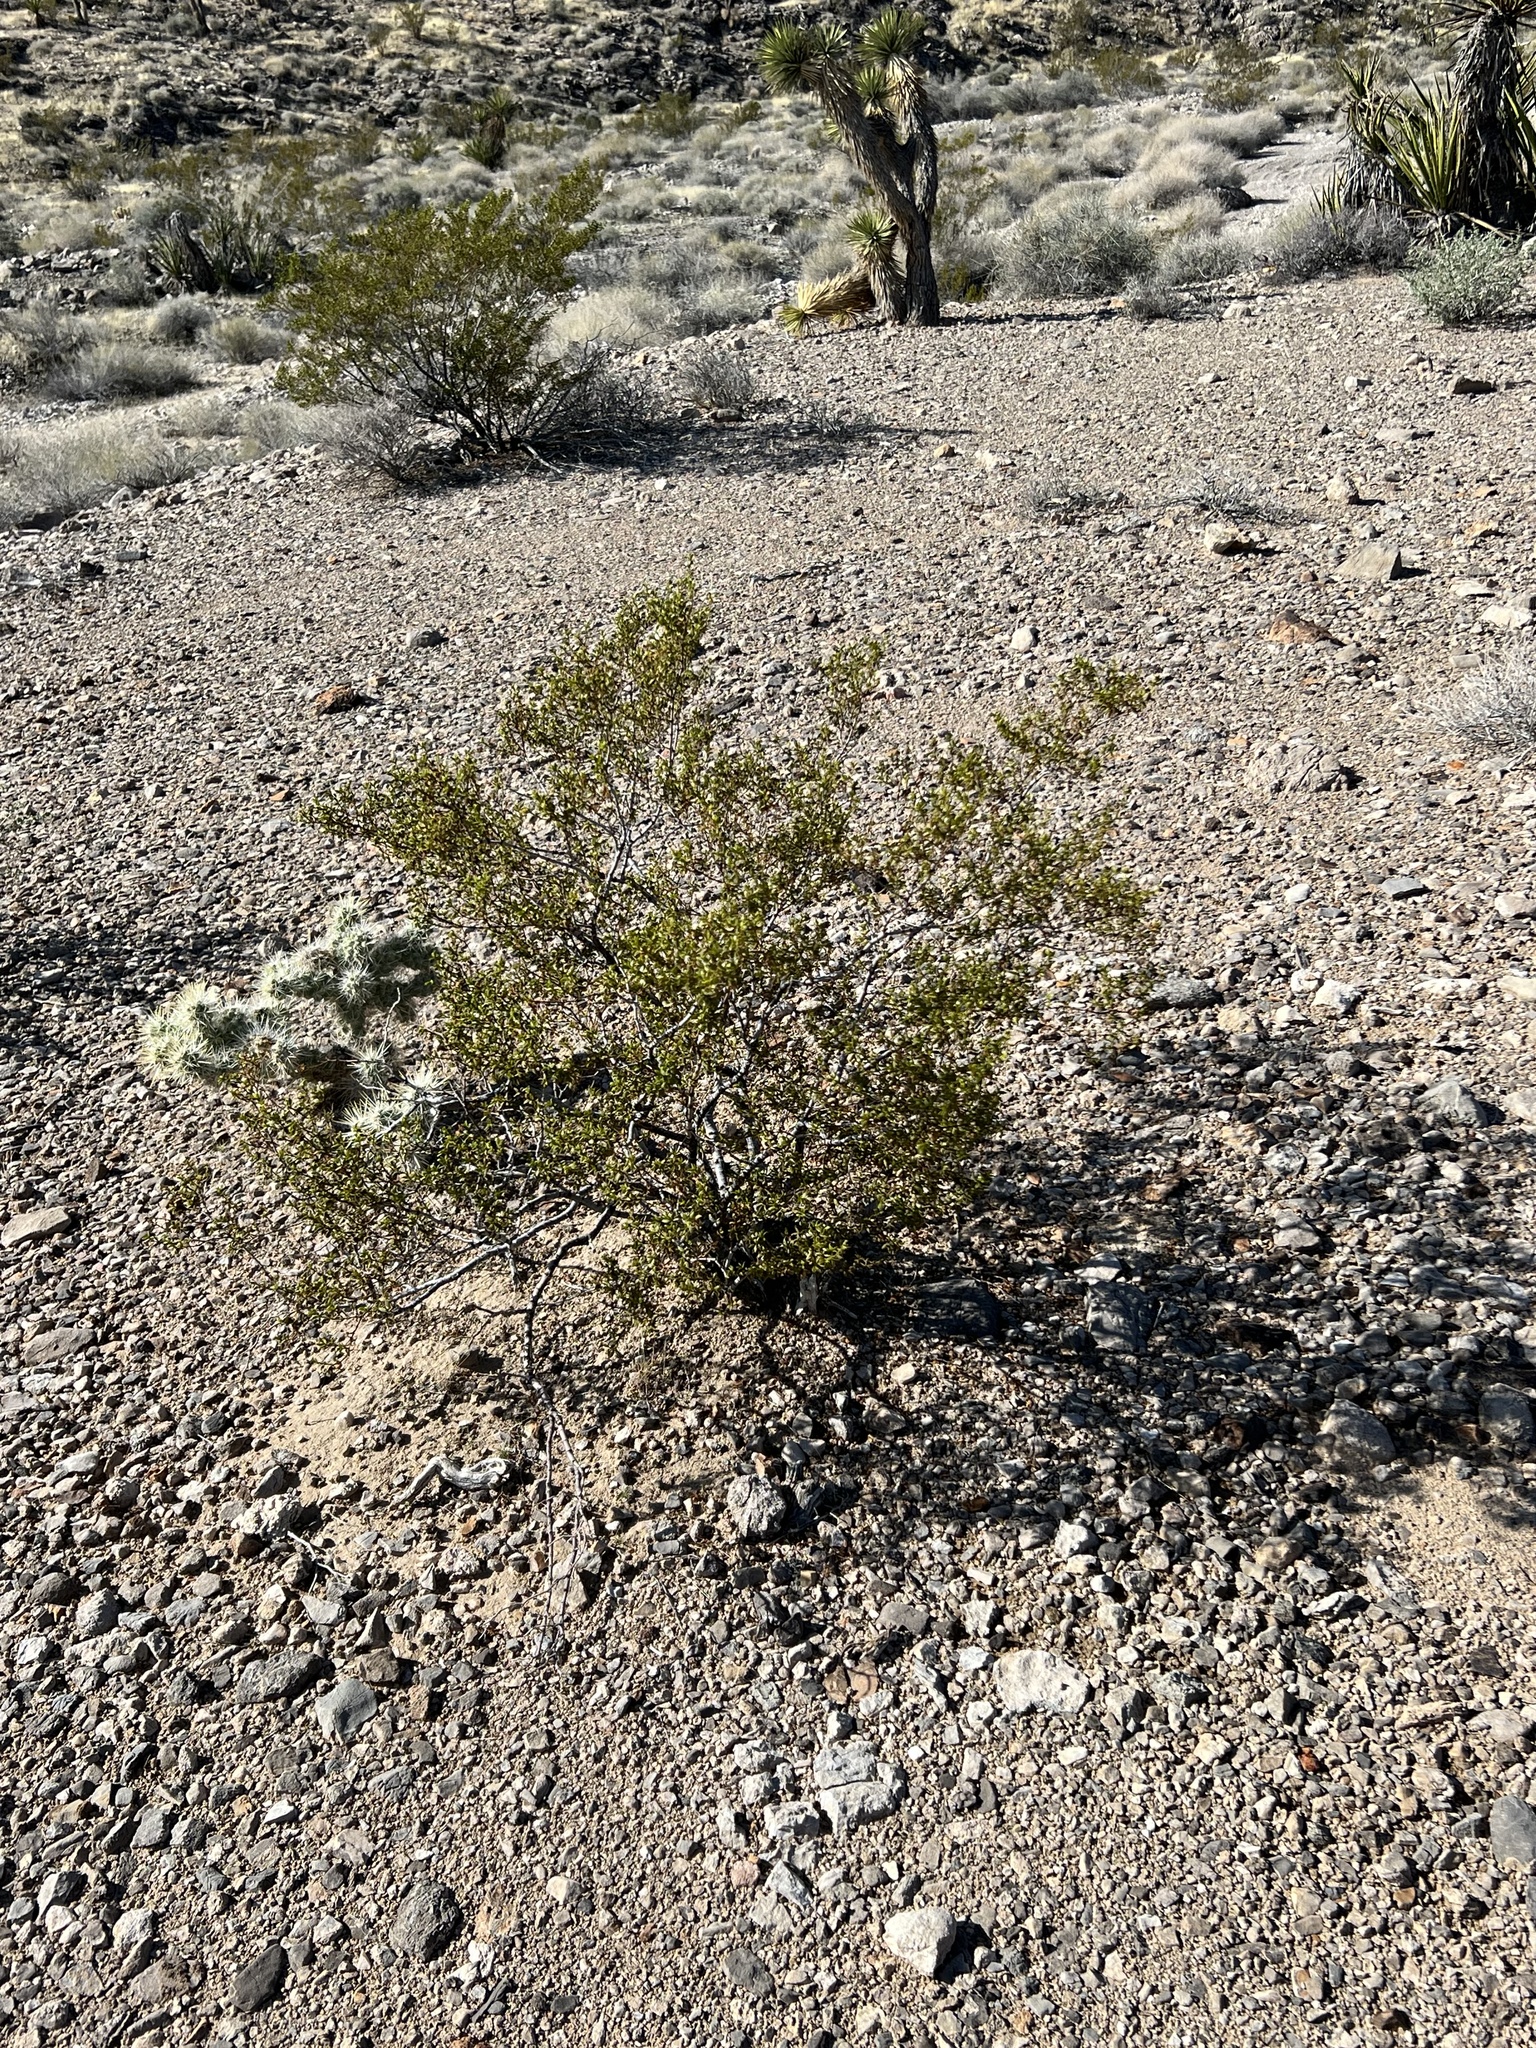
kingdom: Plantae
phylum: Tracheophyta
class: Magnoliopsida
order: Zygophyllales
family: Zygophyllaceae
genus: Larrea
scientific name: Larrea tridentata
